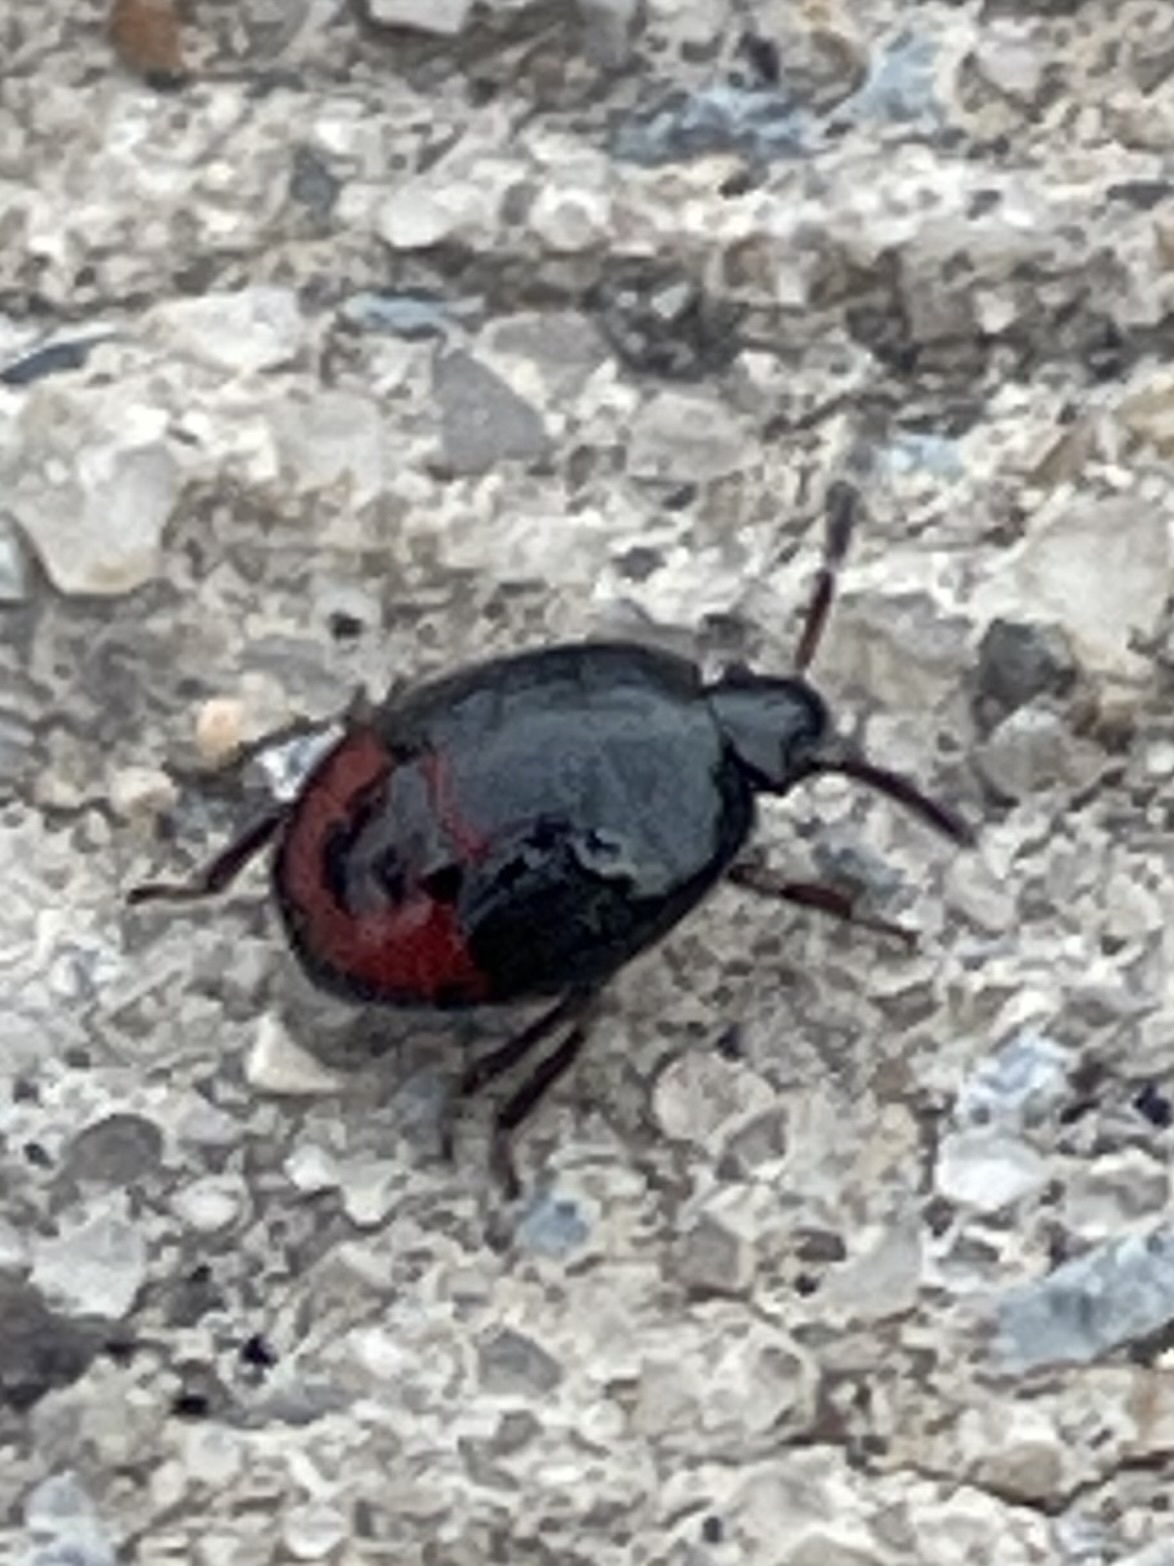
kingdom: Animalia
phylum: Arthropoda
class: Insecta
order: Hemiptera
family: Cydnidae
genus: Sehirus
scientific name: Sehirus cinctus
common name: White-margined burrower bug
